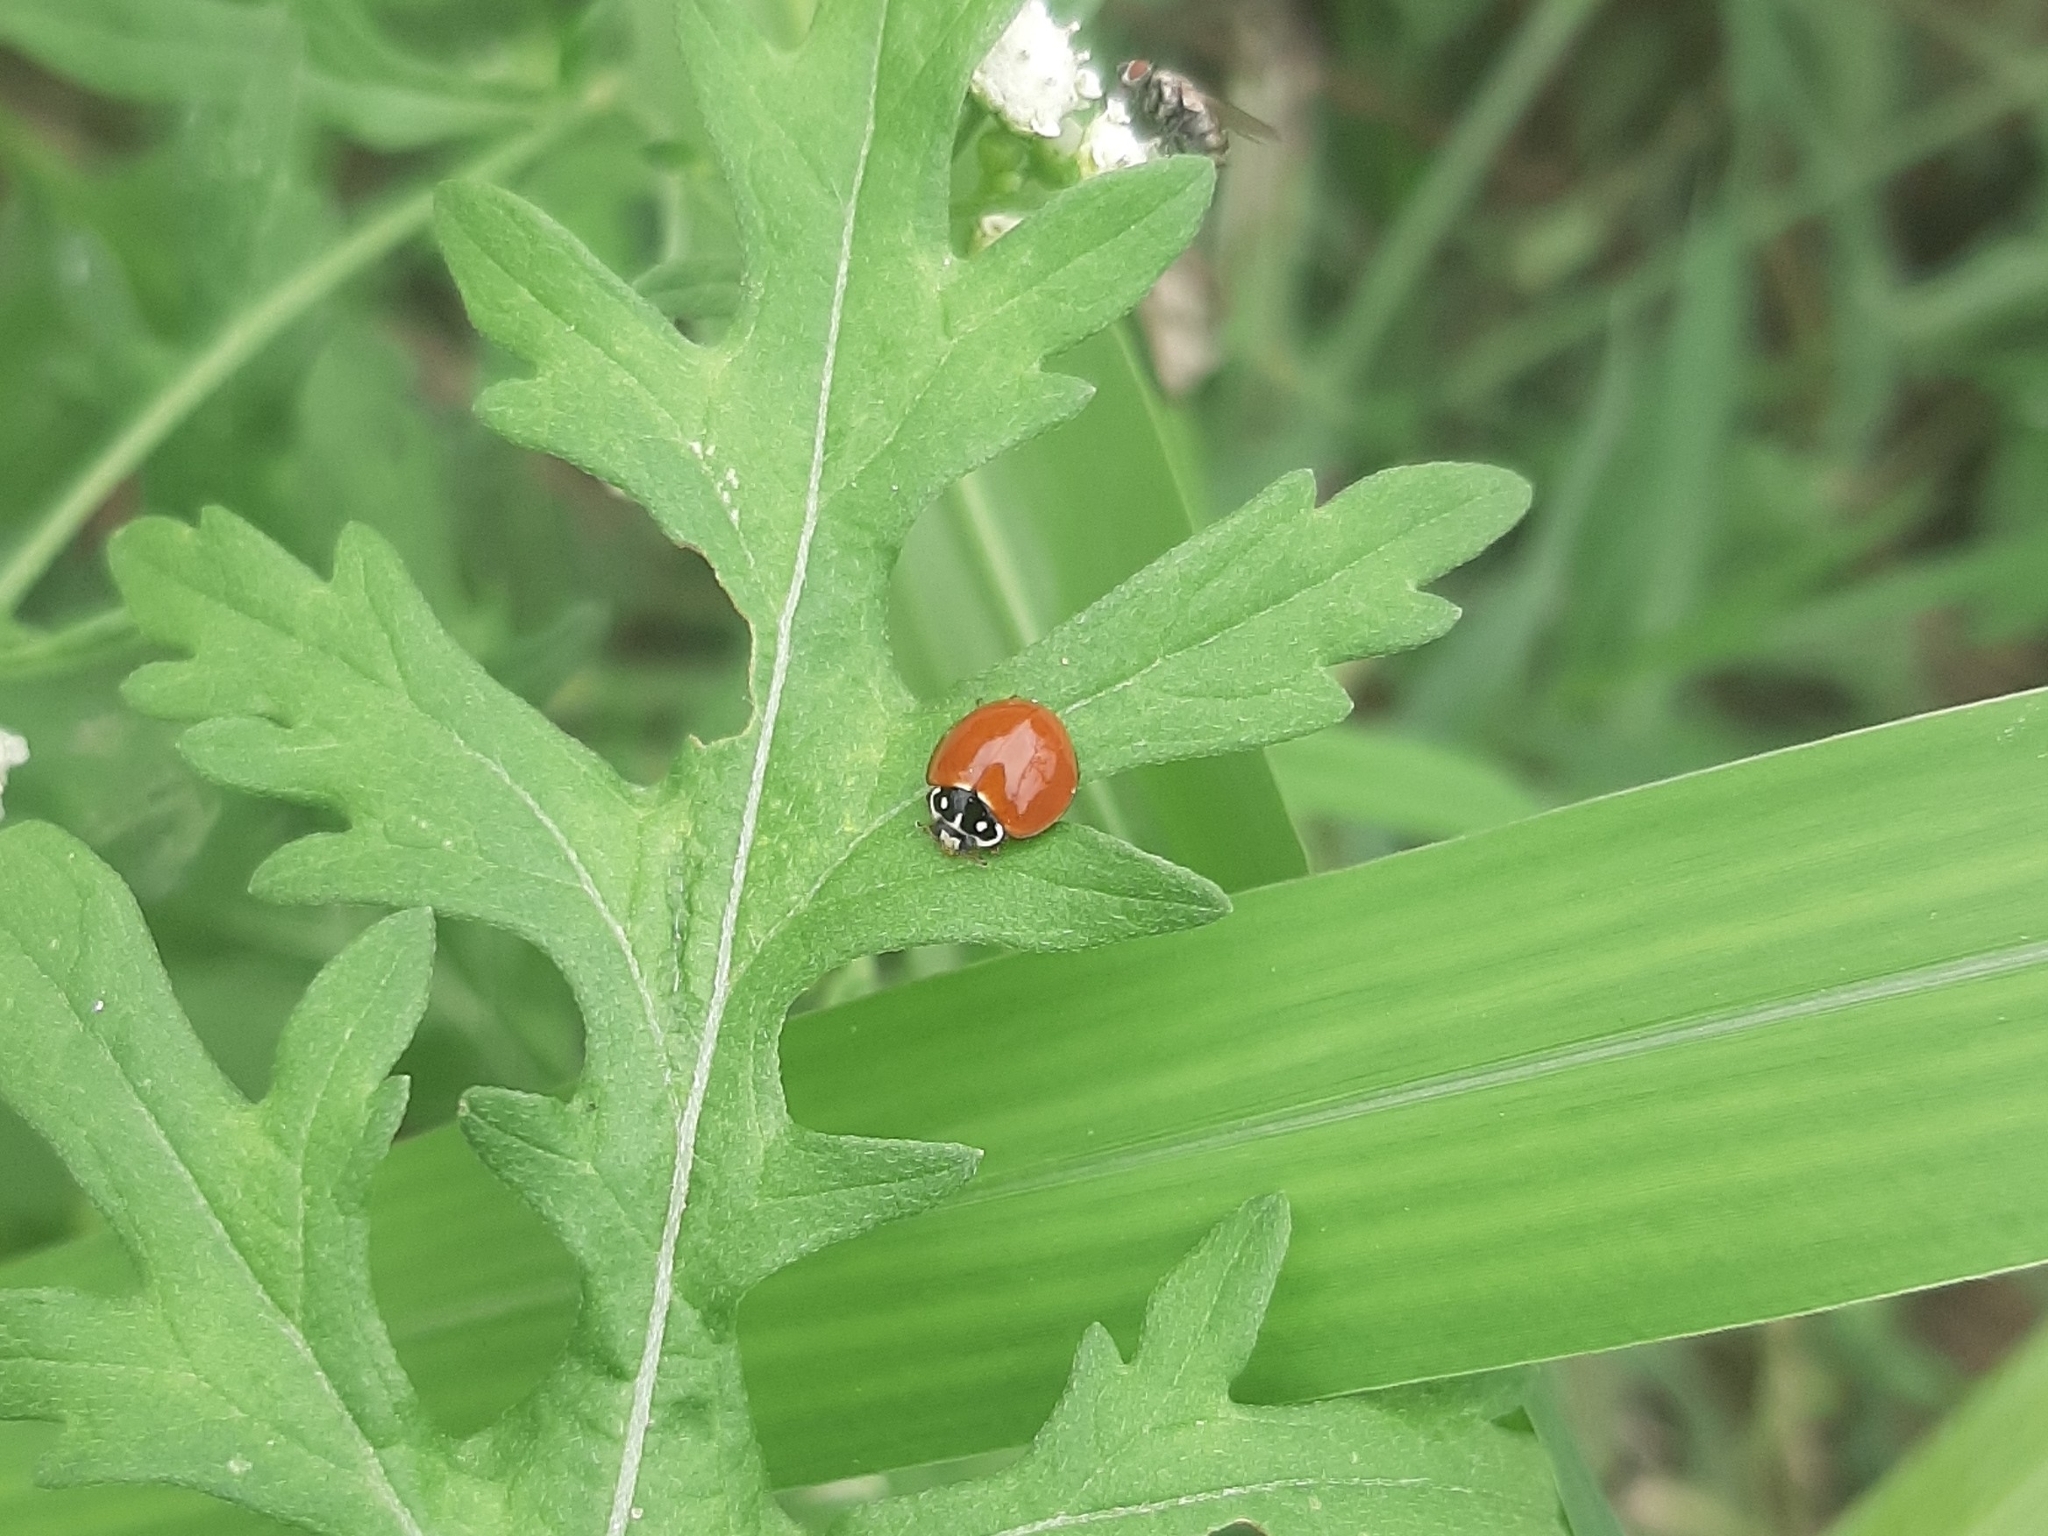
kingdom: Animalia
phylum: Arthropoda
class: Insecta
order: Coleoptera
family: Coccinellidae
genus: Cycloneda
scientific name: Cycloneda sanguinea
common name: Ladybird beetle
